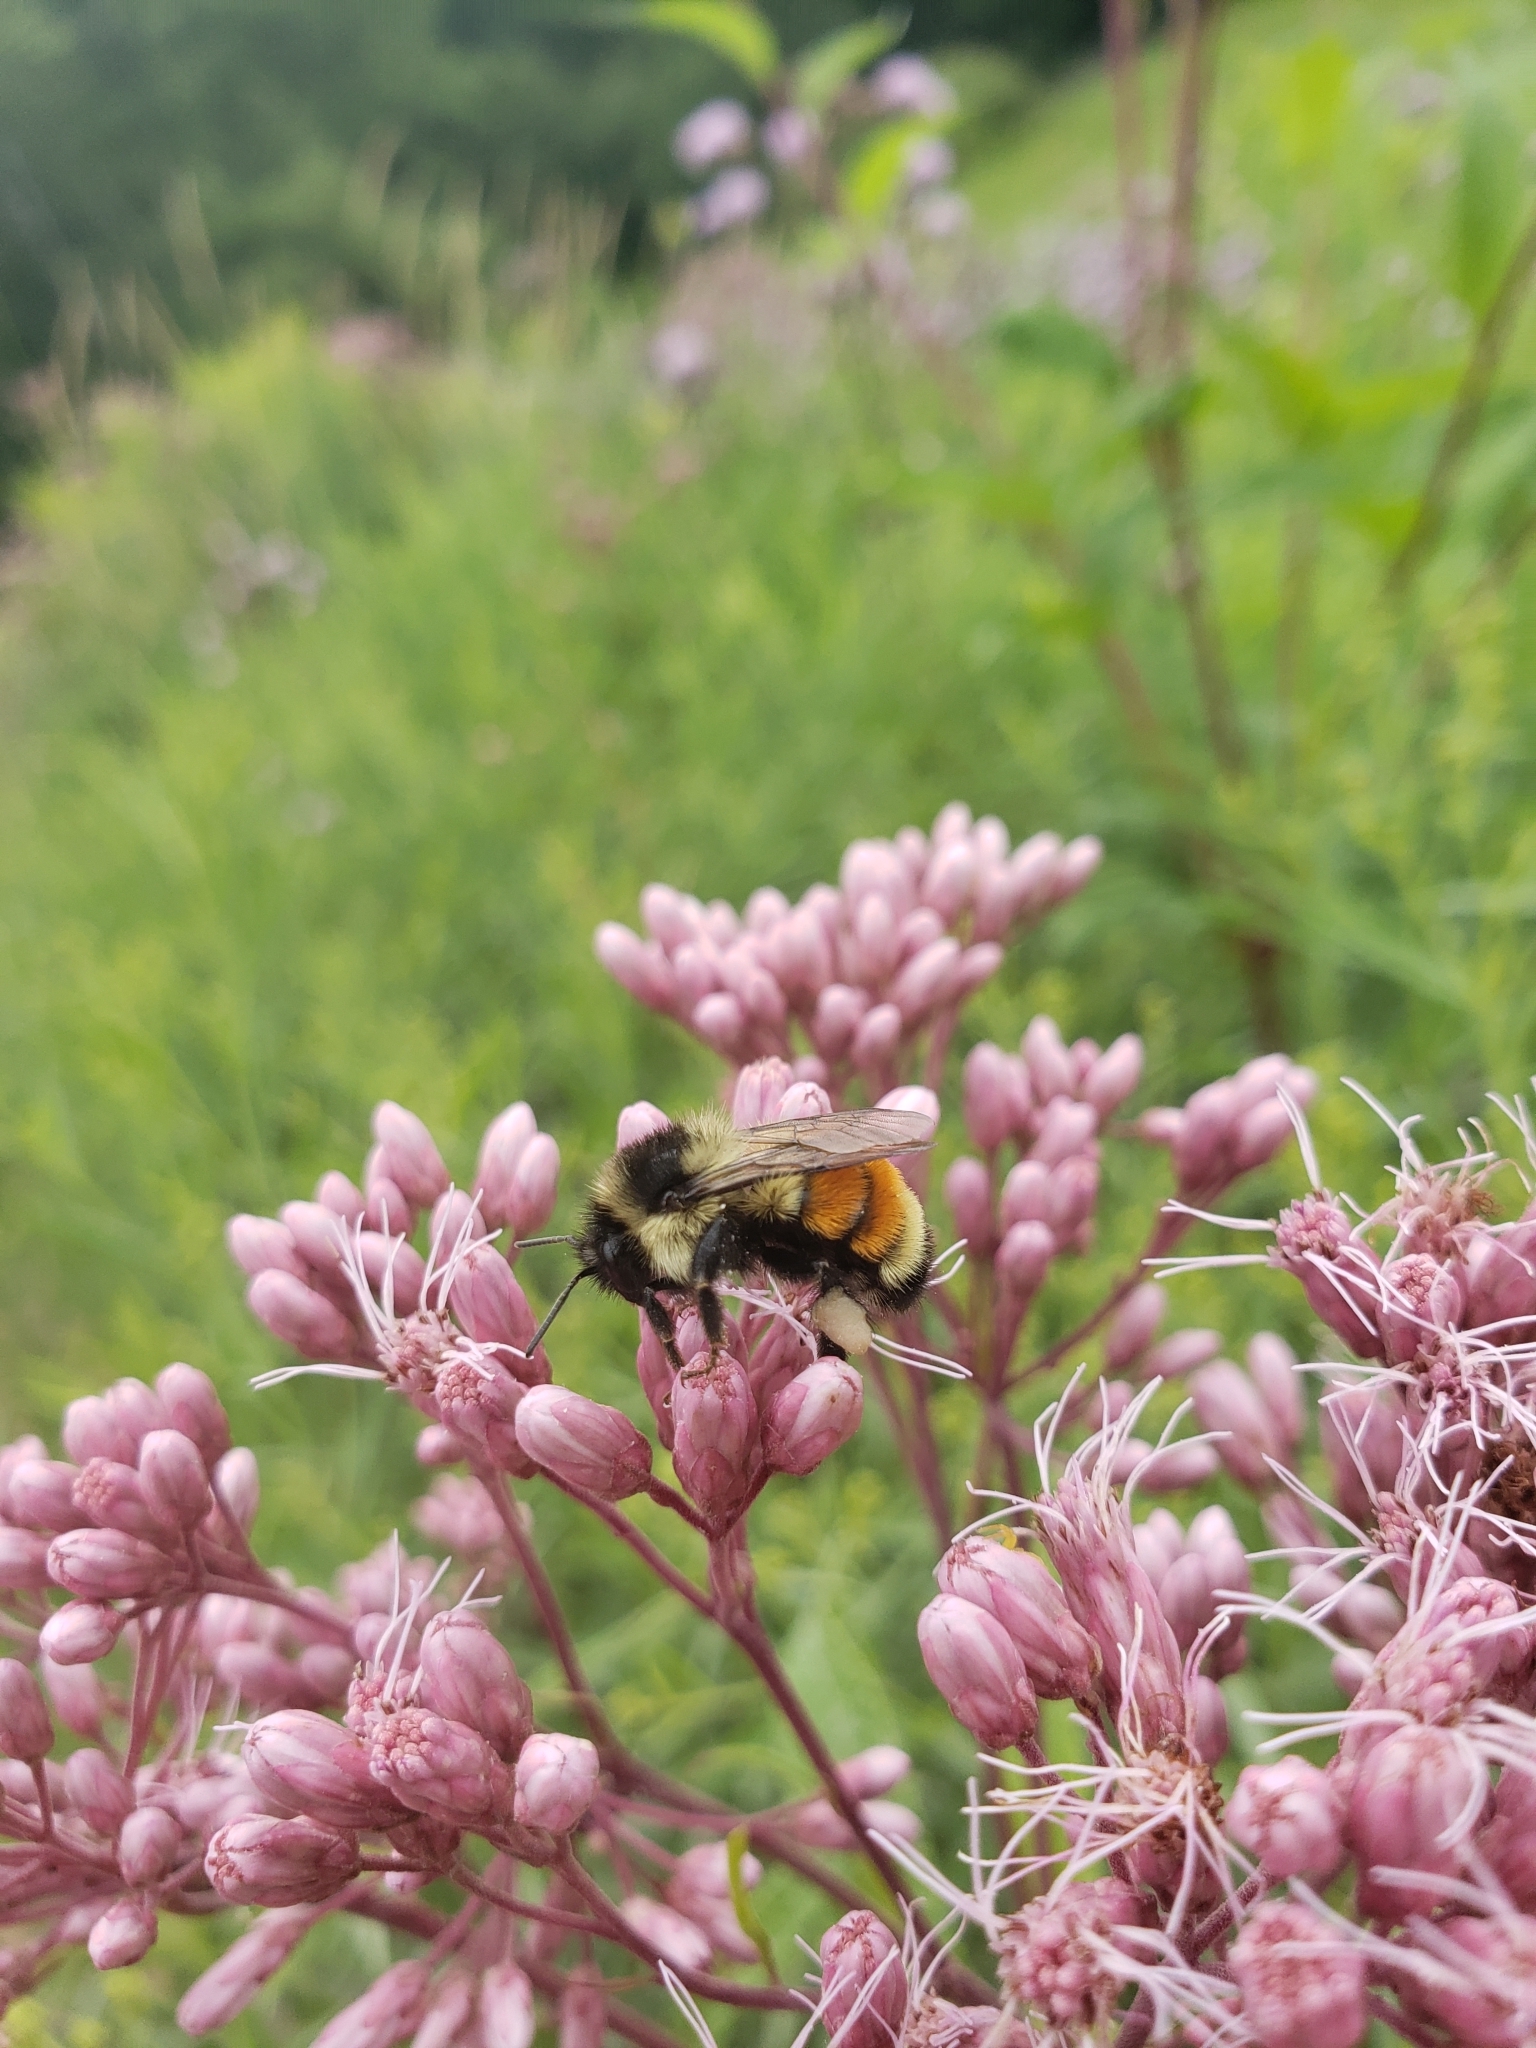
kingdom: Animalia
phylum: Arthropoda
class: Insecta
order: Hymenoptera
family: Apidae
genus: Bombus
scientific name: Bombus ternarius
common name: Tri-colored bumble bee
